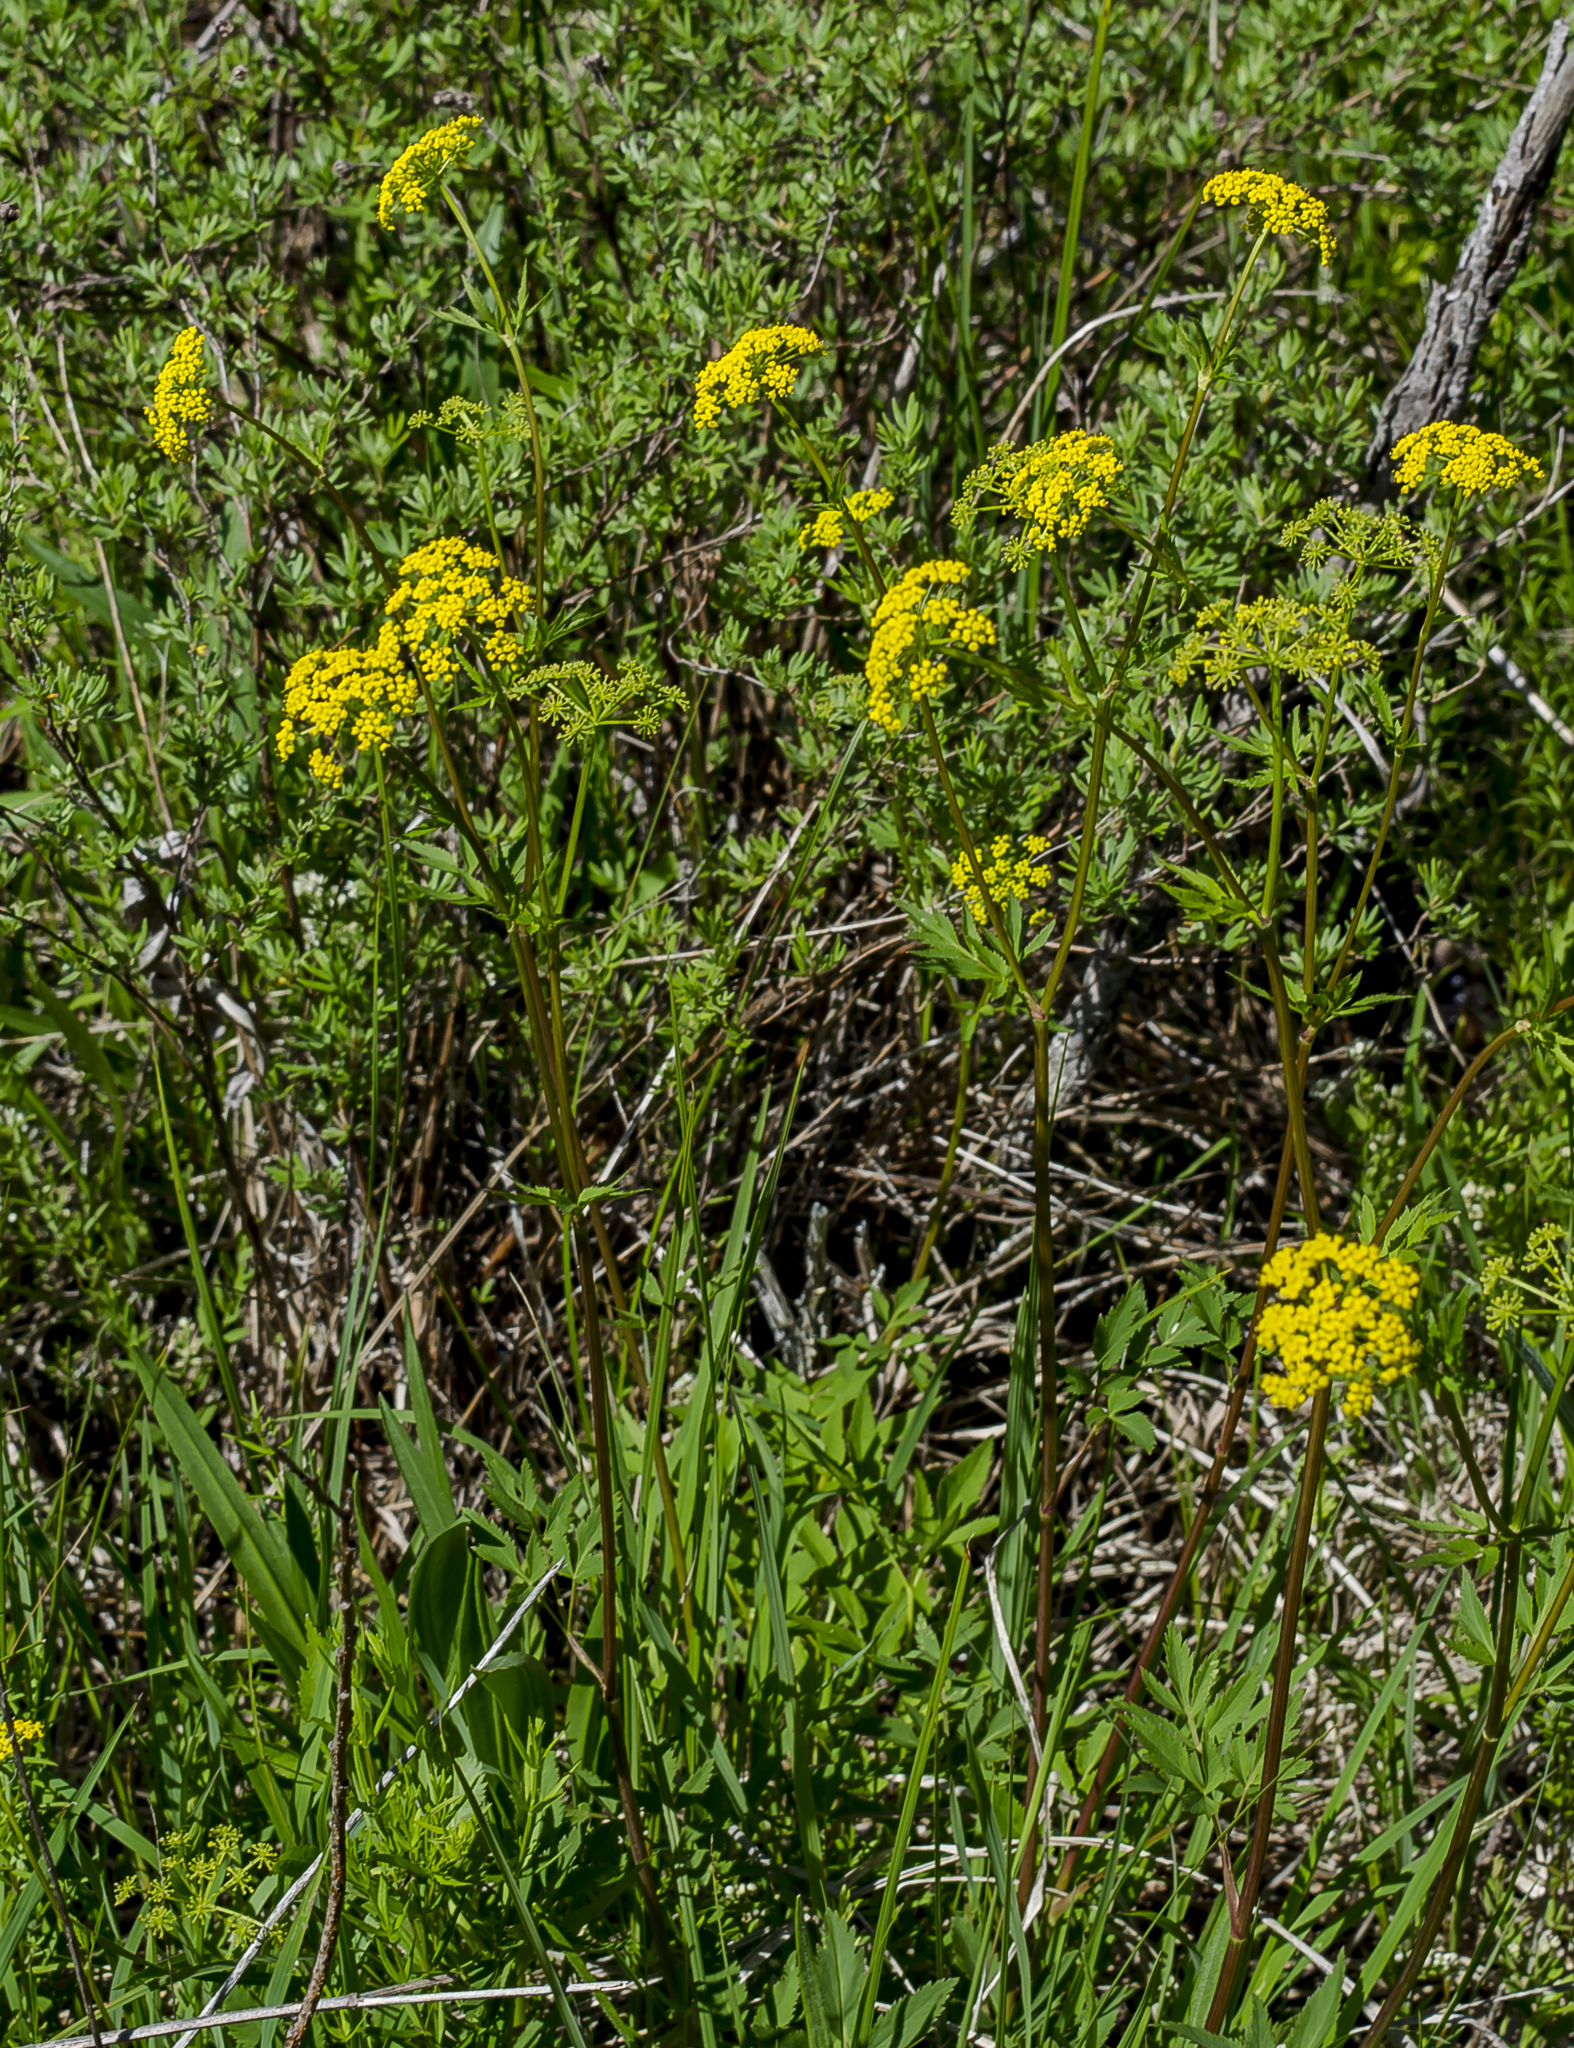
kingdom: Plantae
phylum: Tracheophyta
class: Magnoliopsida
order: Apiales
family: Apiaceae
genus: Zizia
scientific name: Zizia aurea
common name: Golden alexanders
